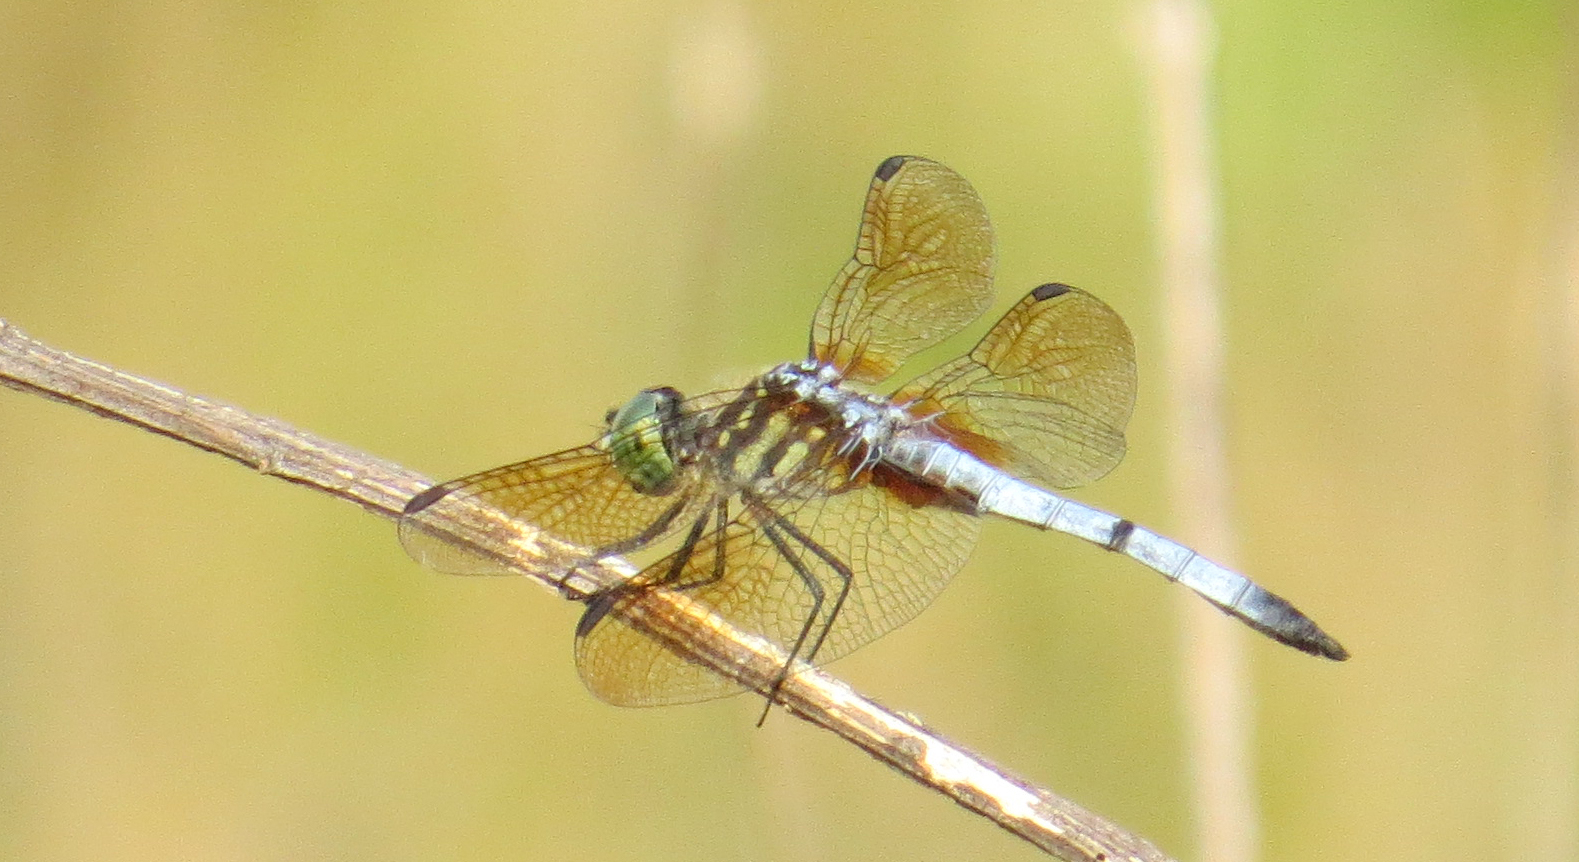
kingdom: Animalia
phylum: Arthropoda
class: Insecta
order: Odonata
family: Libellulidae
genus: Pachydiplax
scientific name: Pachydiplax longipennis
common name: Blue dasher
